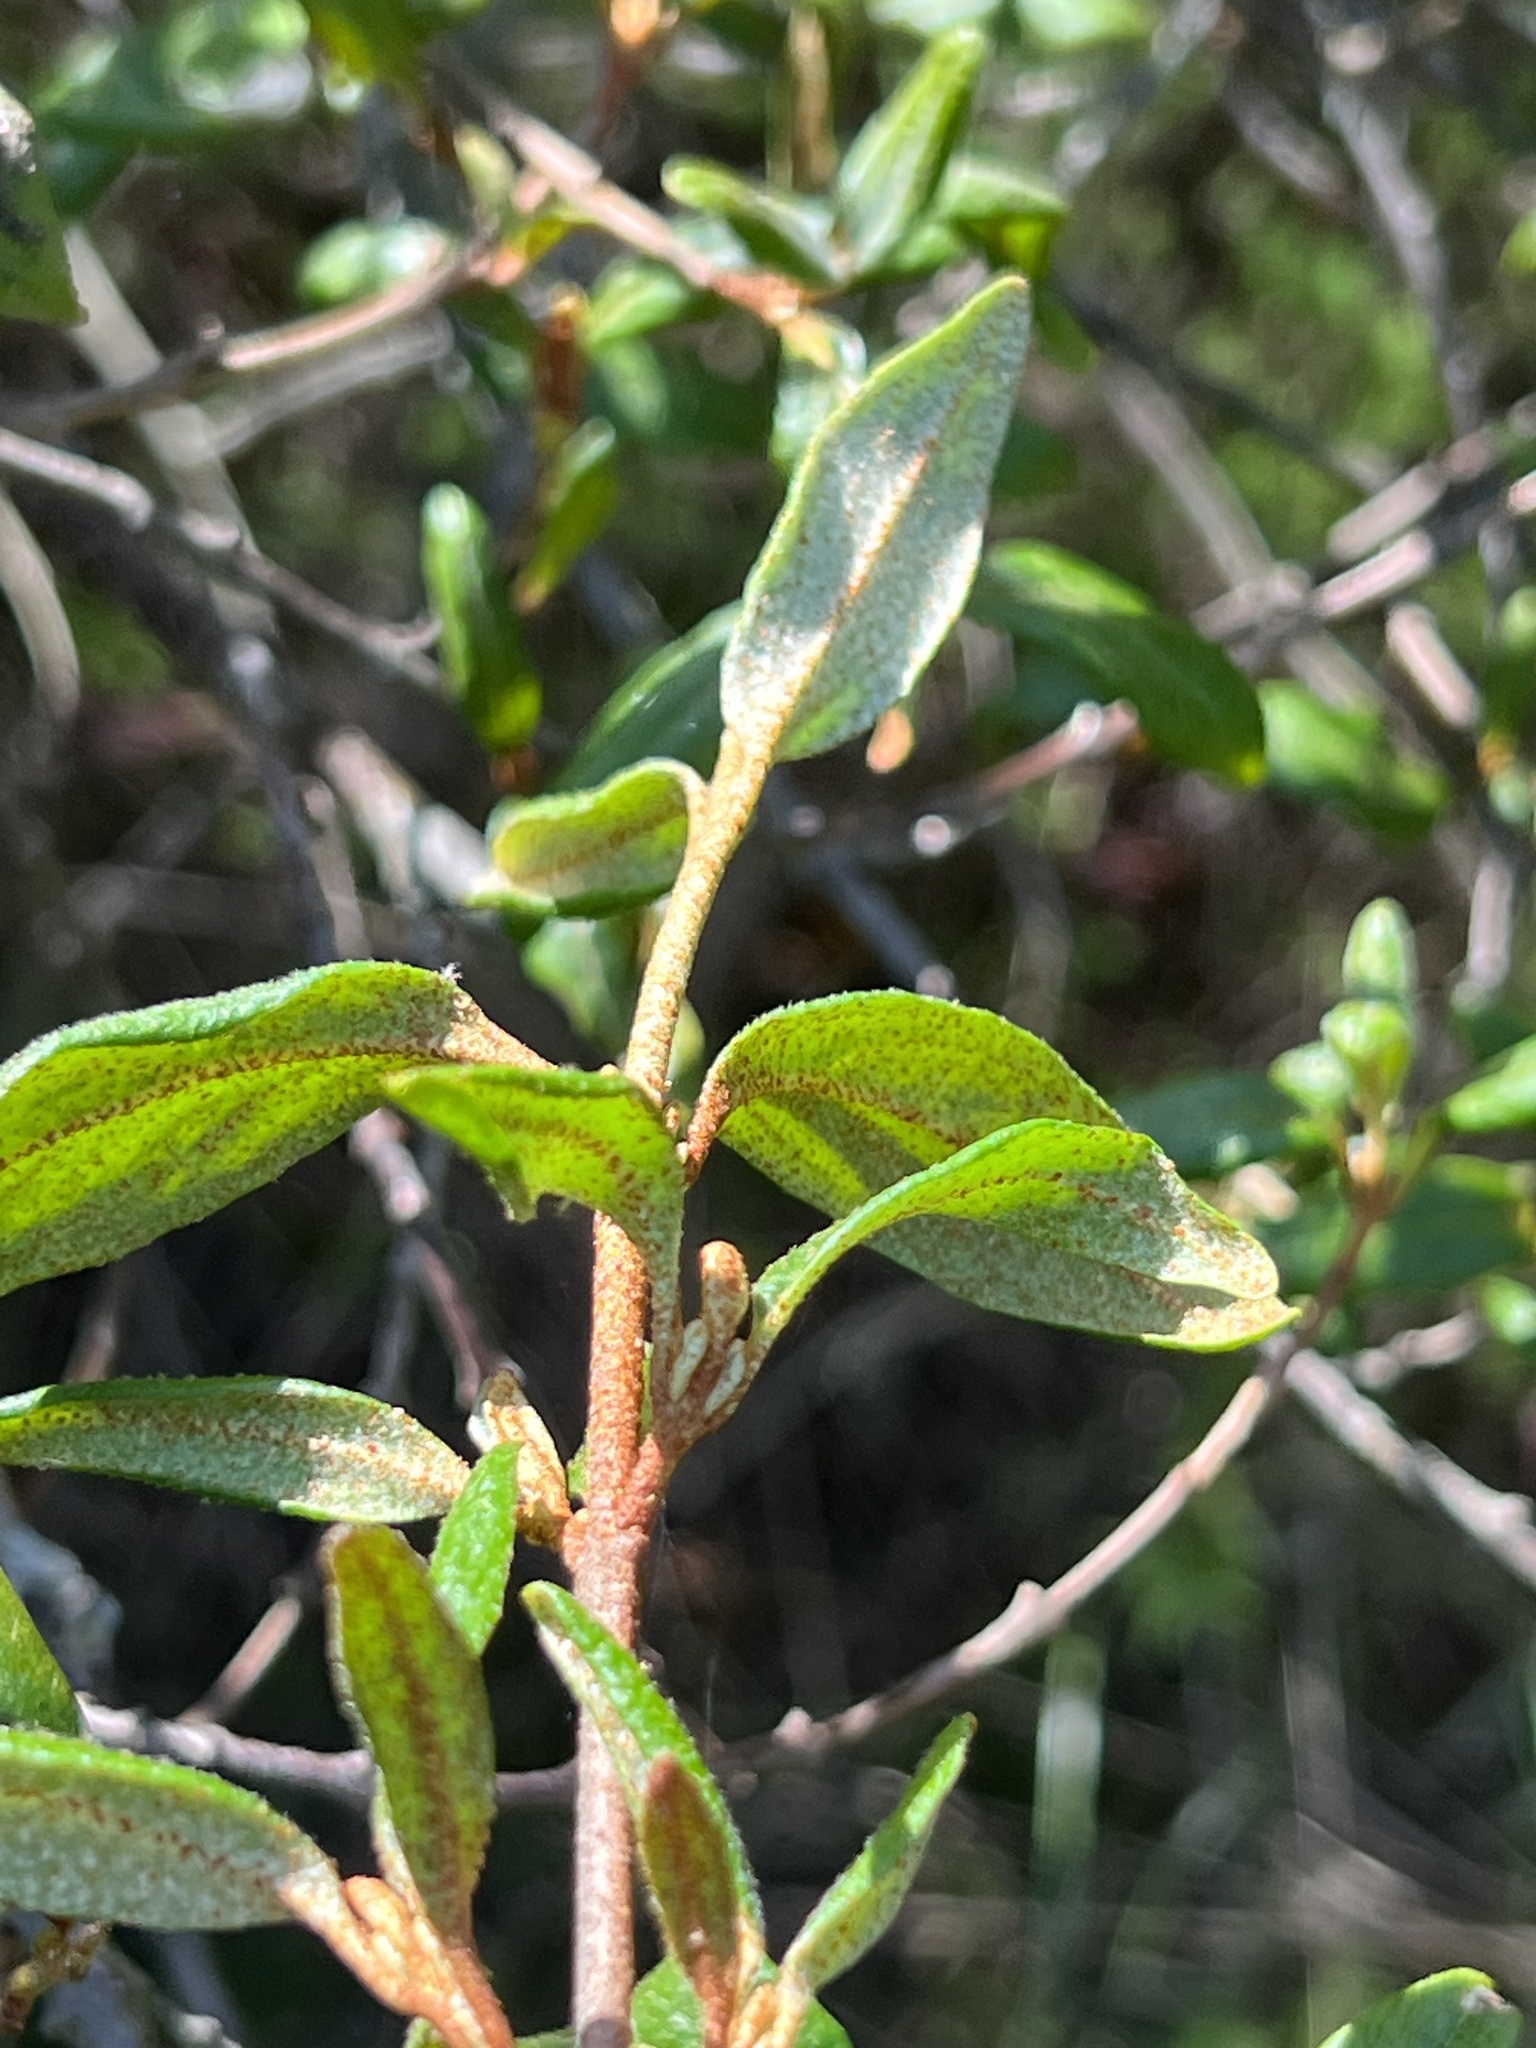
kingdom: Plantae
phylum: Tracheophyta
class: Magnoliopsida
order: Rosales
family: Elaeagnaceae
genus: Shepherdia
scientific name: Shepherdia canadensis
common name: Soapberry
